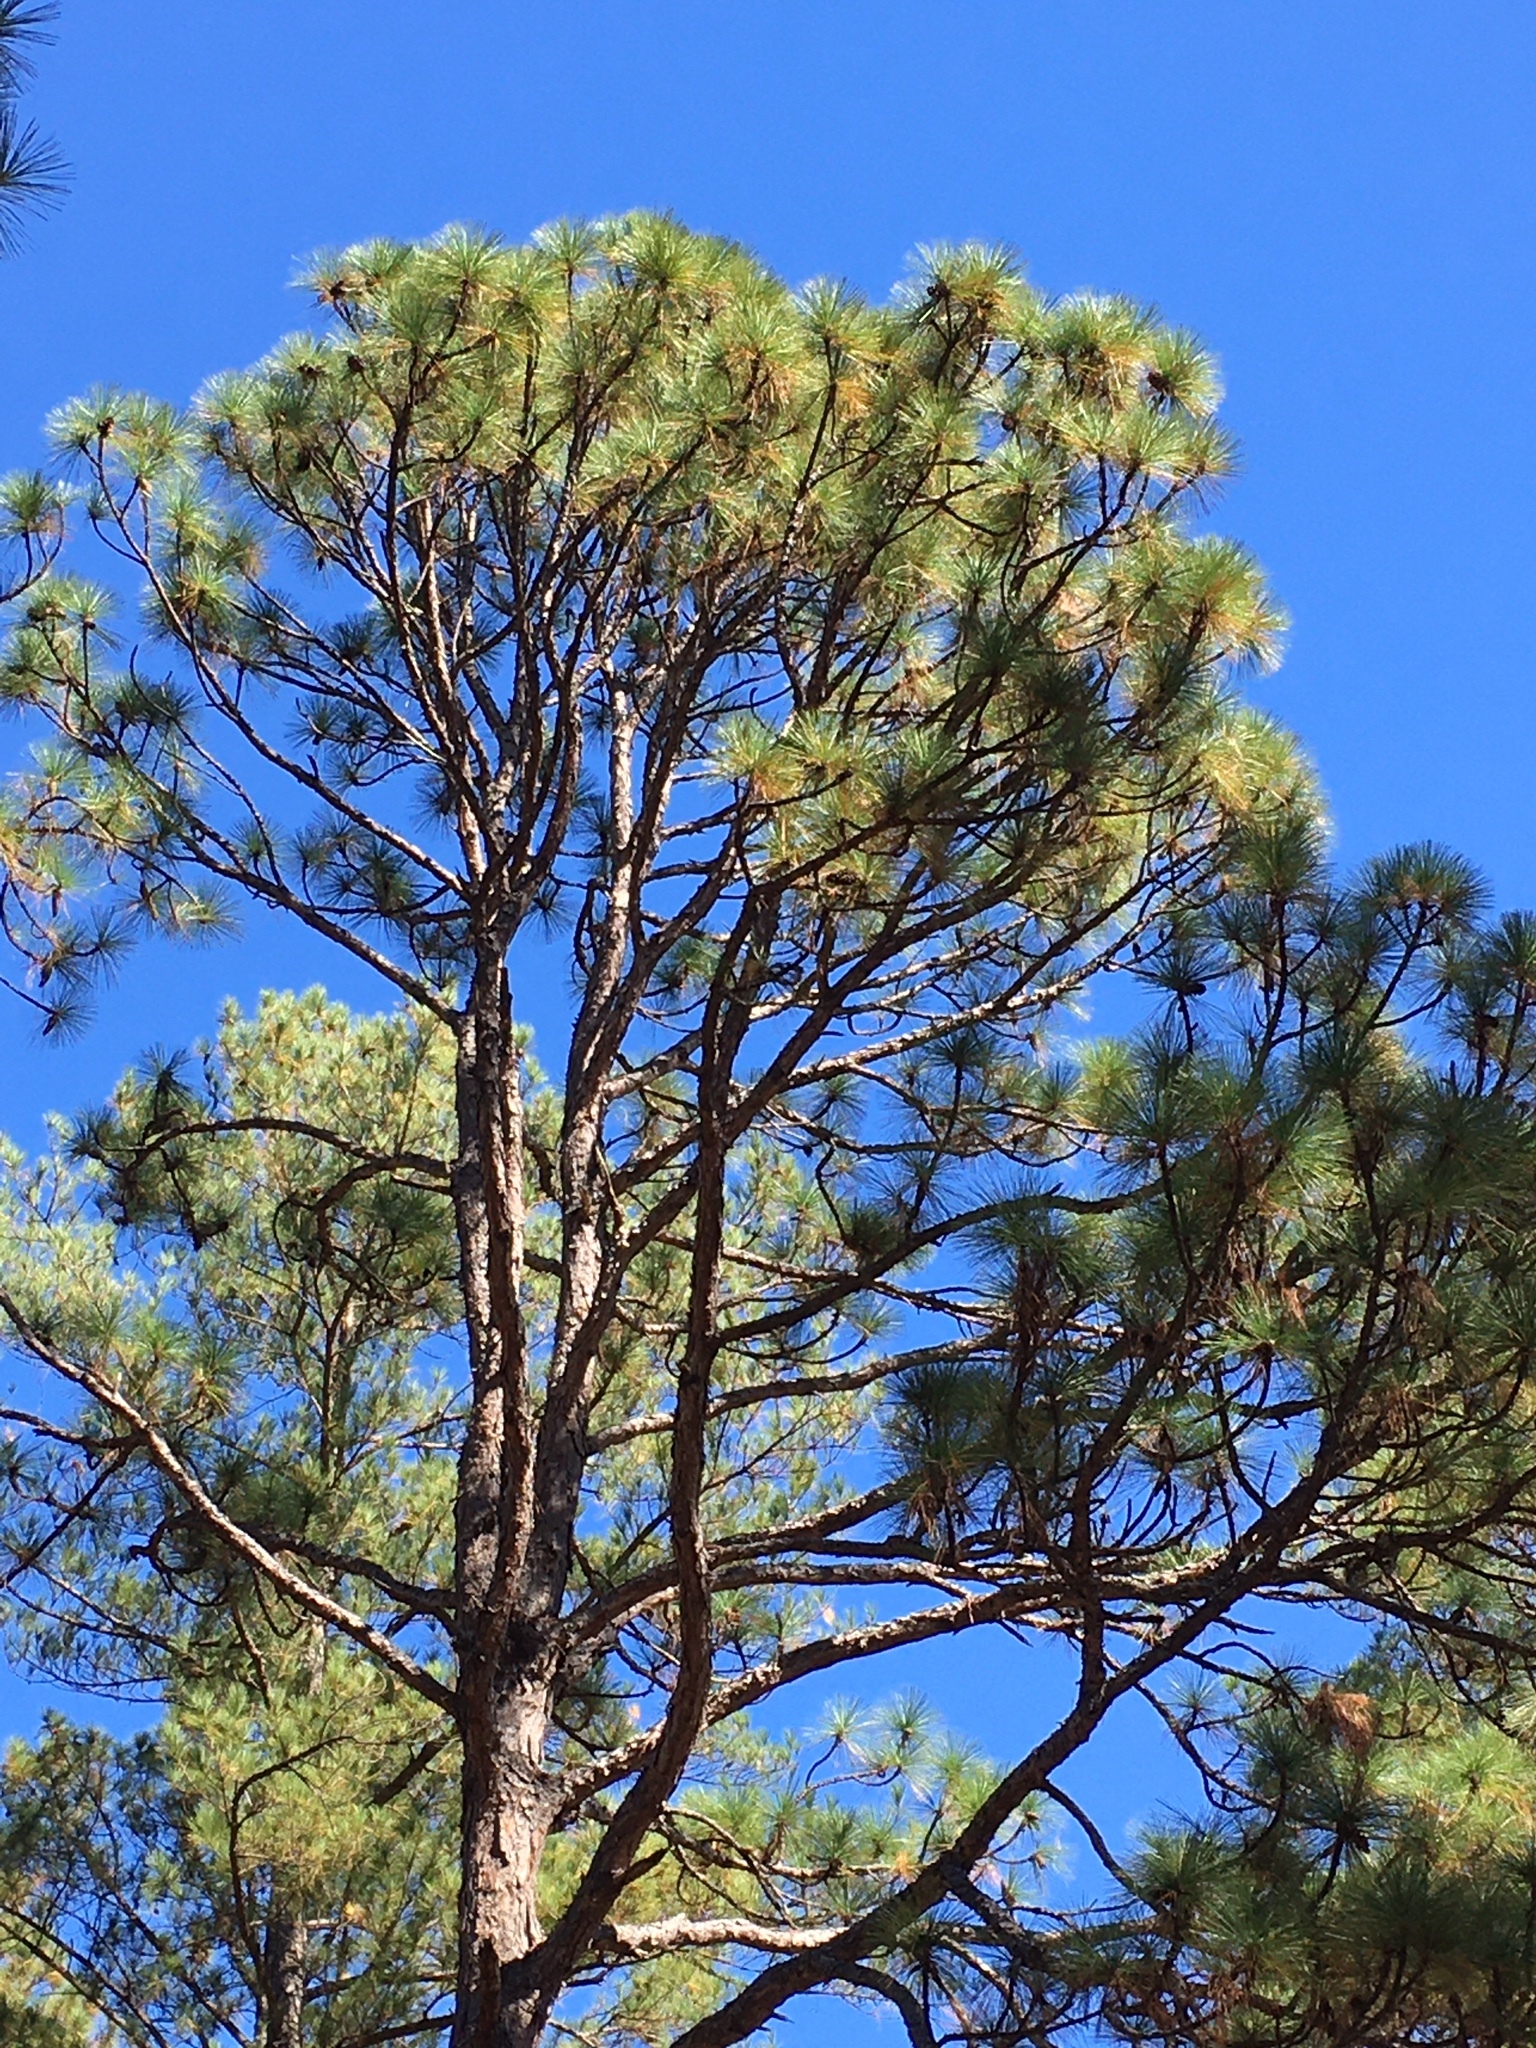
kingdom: Plantae
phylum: Tracheophyta
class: Pinopsida
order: Pinales
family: Pinaceae
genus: Pinus
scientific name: Pinus palustris
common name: Longleaf pine
